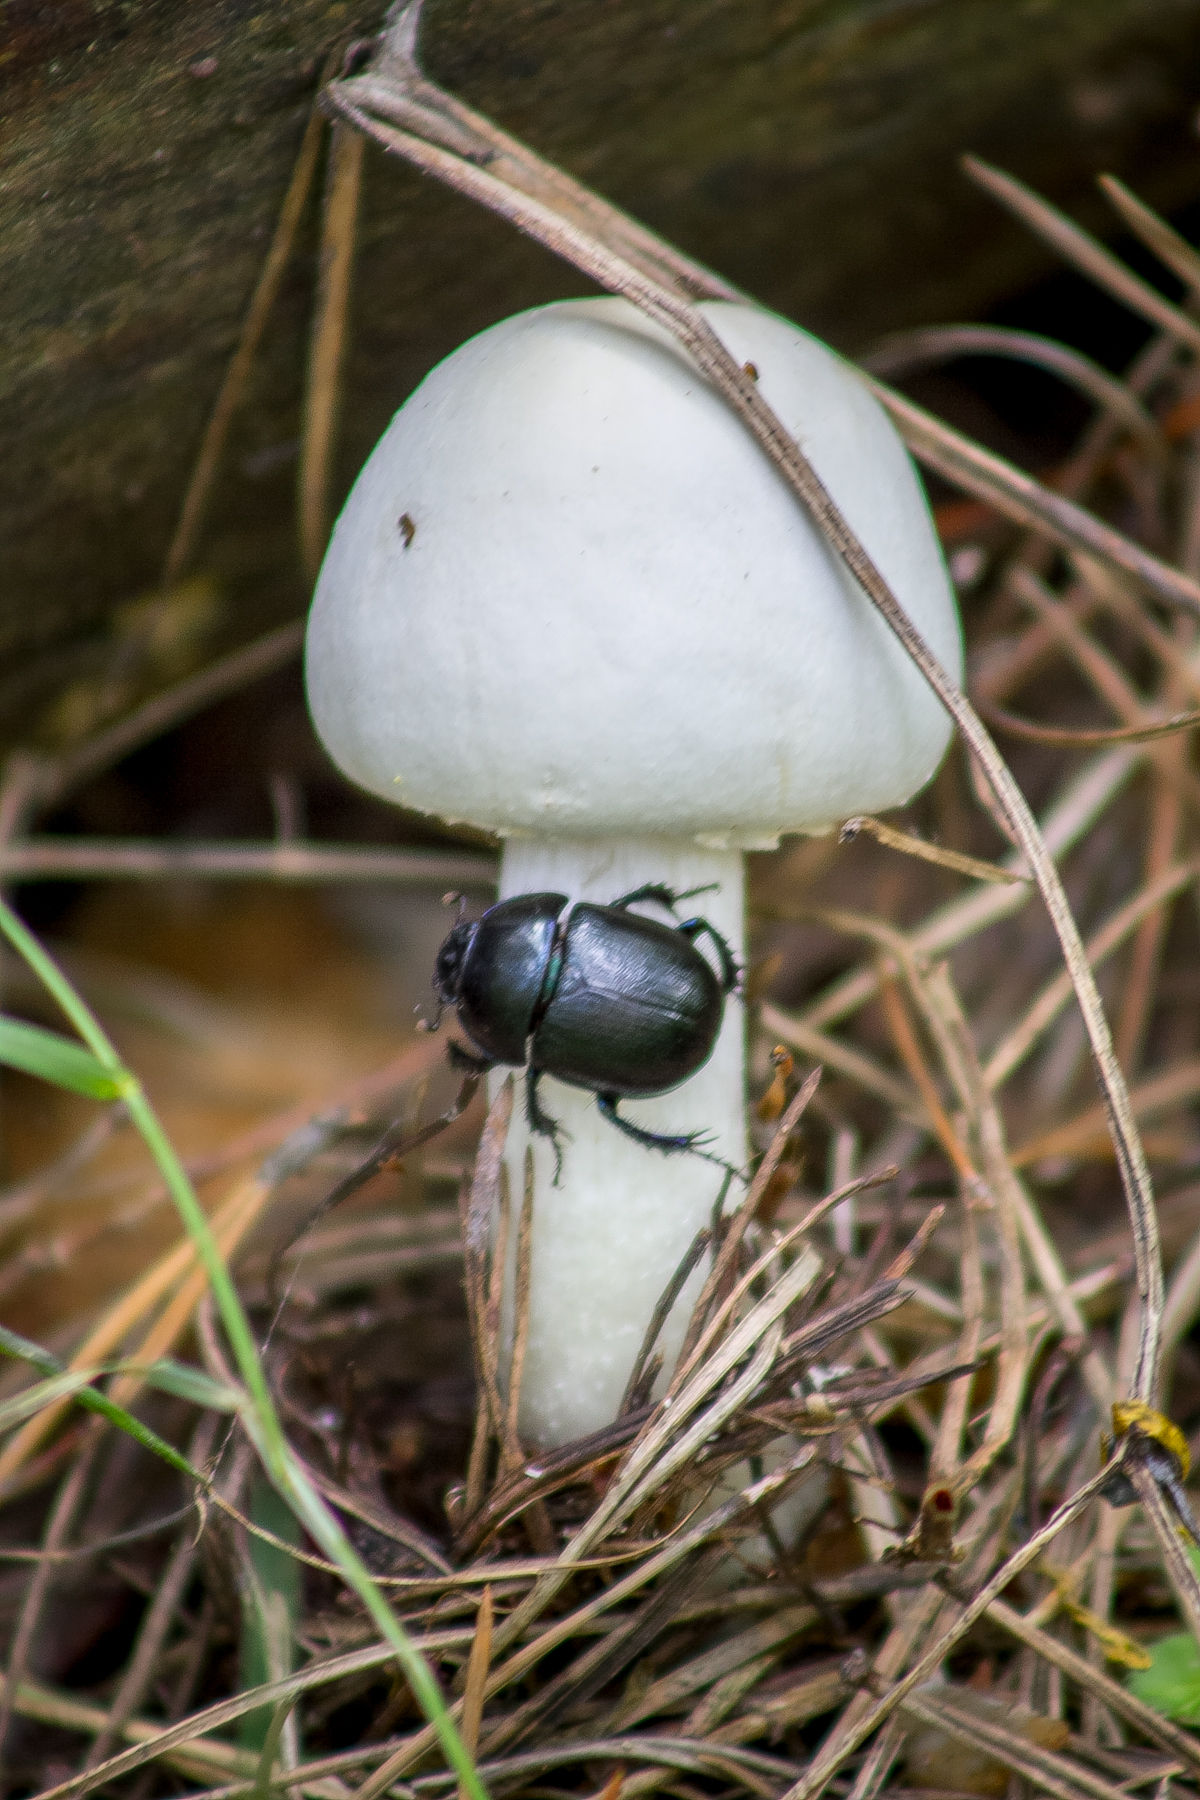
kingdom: Animalia
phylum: Arthropoda
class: Insecta
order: Coleoptera
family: Geotrupidae
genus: Anoplotrupes
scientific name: Anoplotrupes stercorosus
